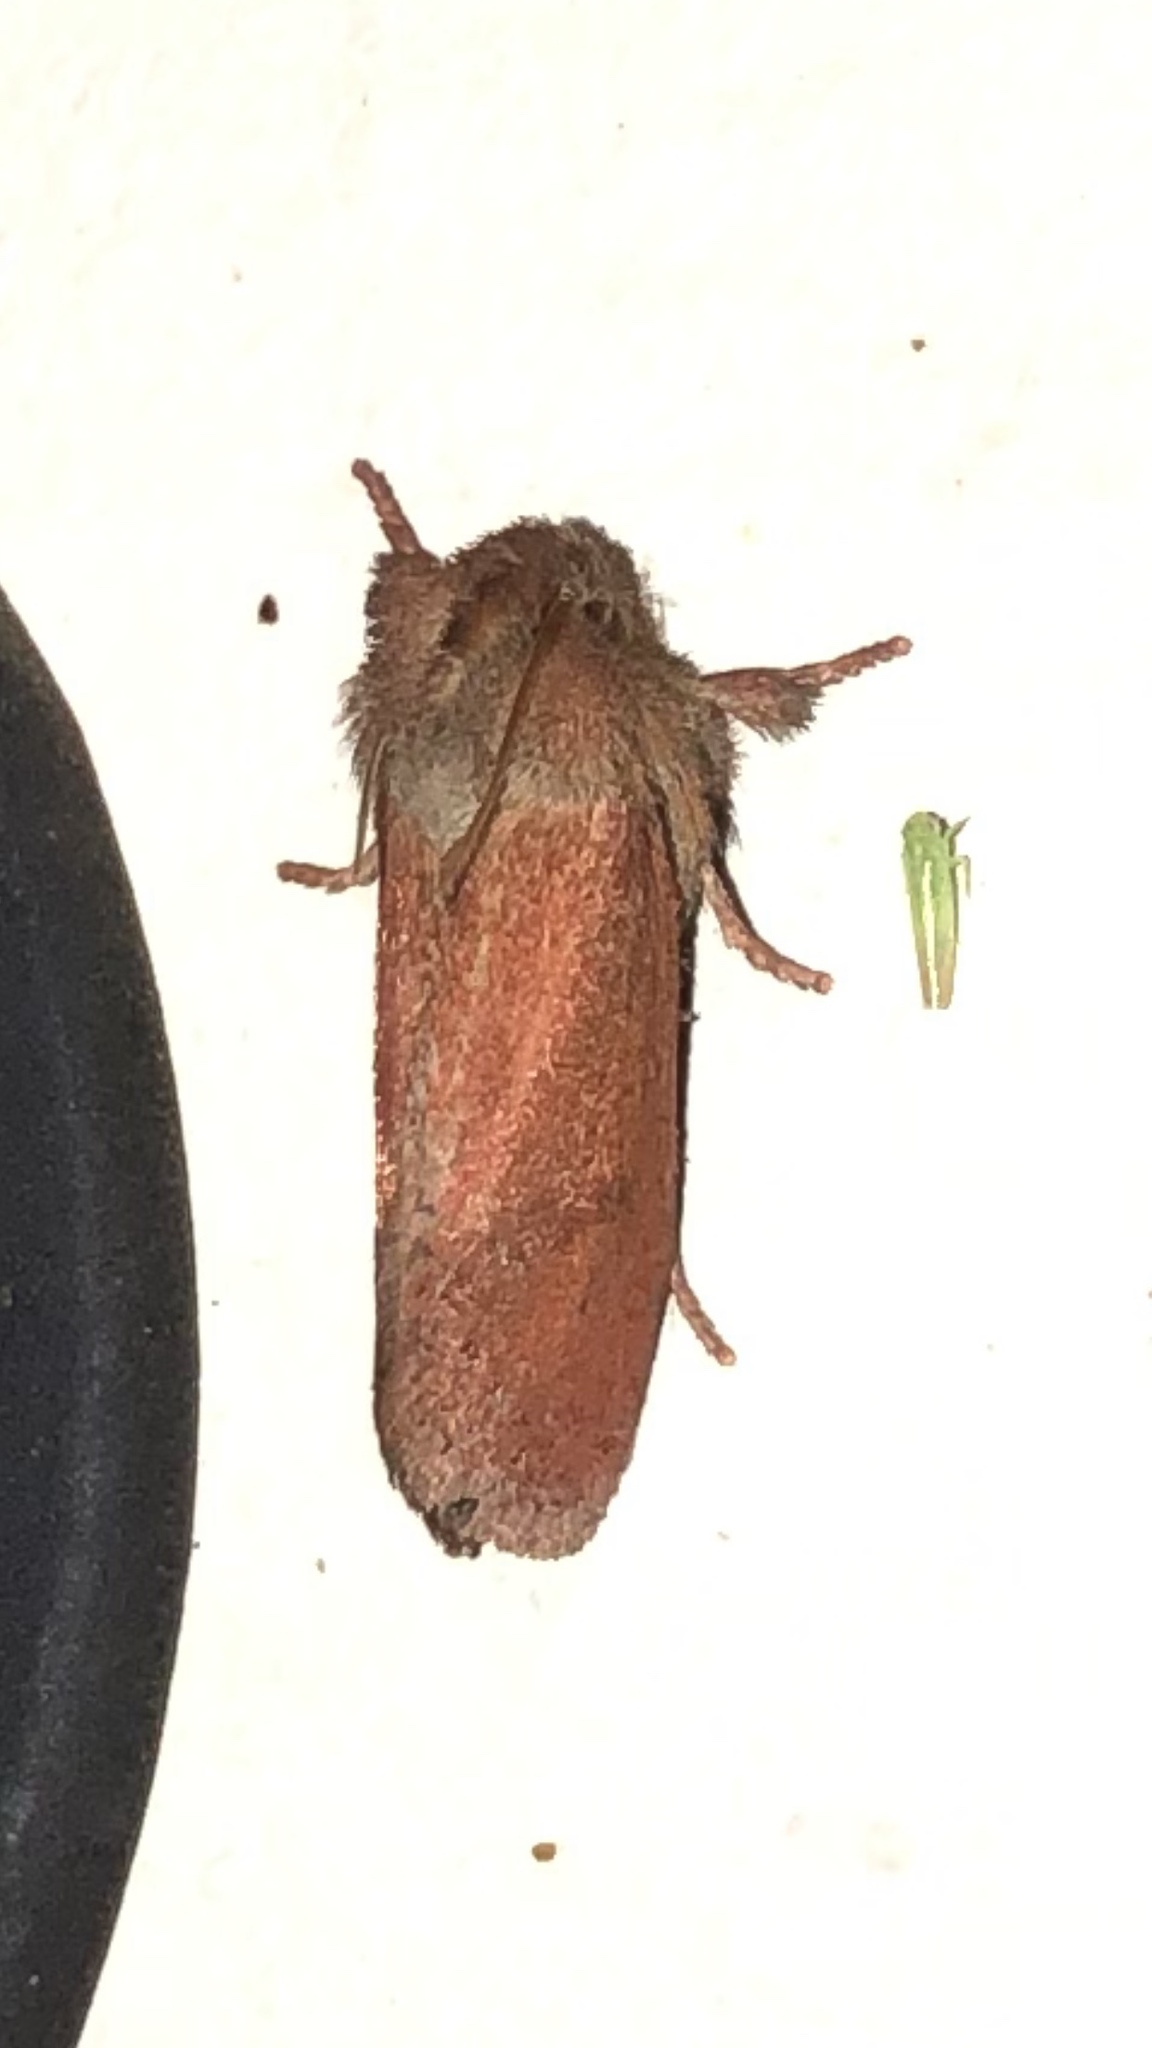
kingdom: Animalia
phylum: Arthropoda
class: Insecta
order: Lepidoptera
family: Tineidae
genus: Acrolophus
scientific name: Acrolophus plumifrontella
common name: Eastern grass tubeworm moth
